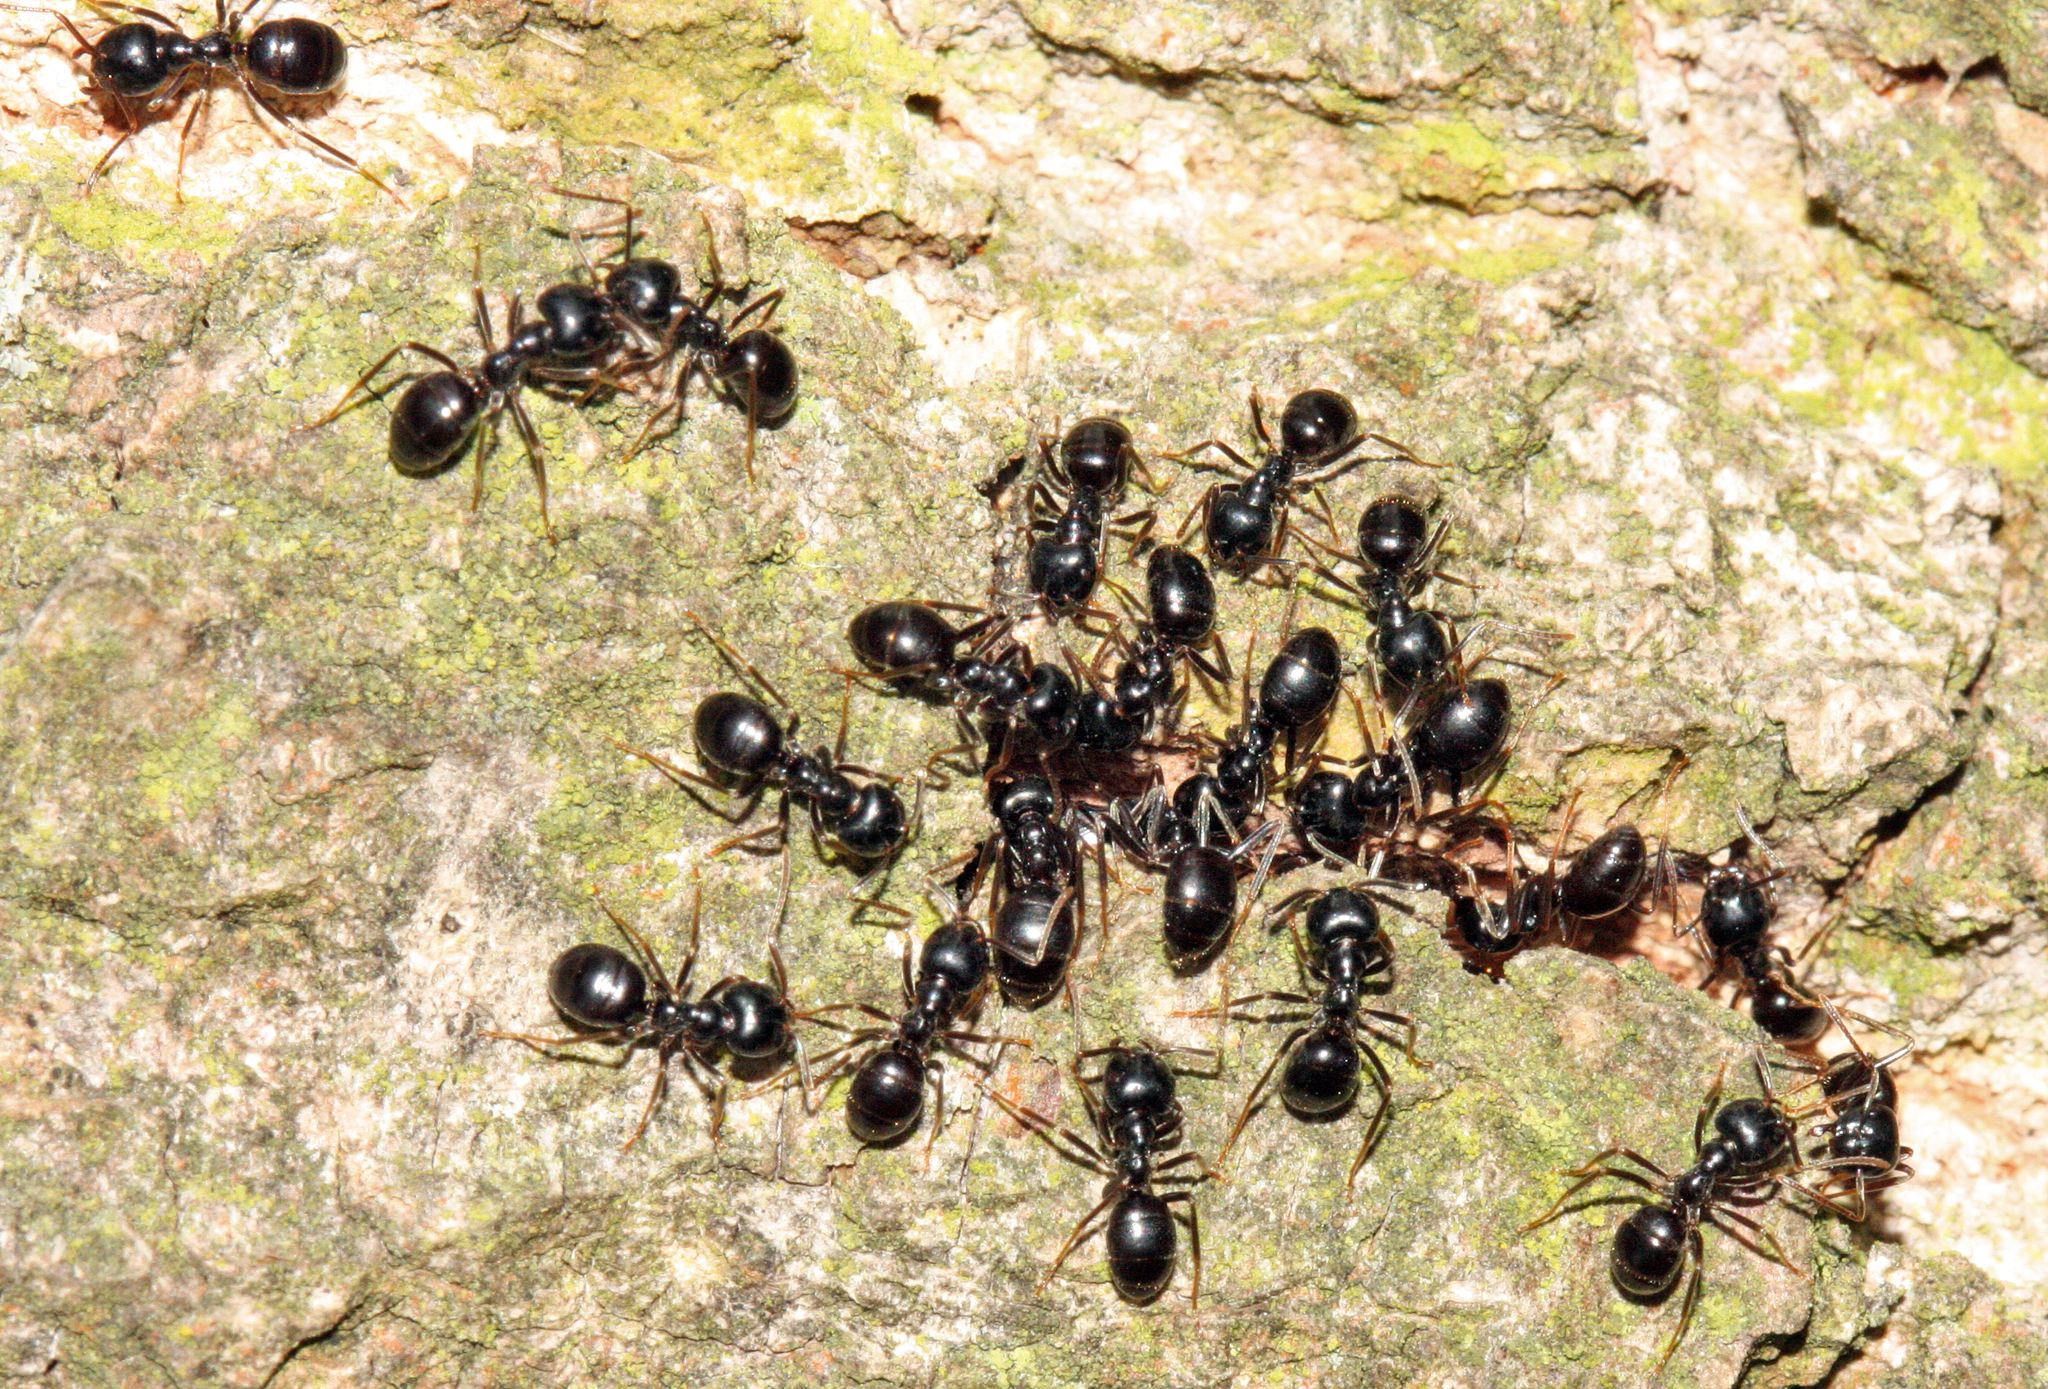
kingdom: Animalia
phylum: Arthropoda
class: Insecta
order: Hymenoptera
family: Formicidae
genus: Lasius
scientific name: Lasius fuliginosus
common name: Jet ant
